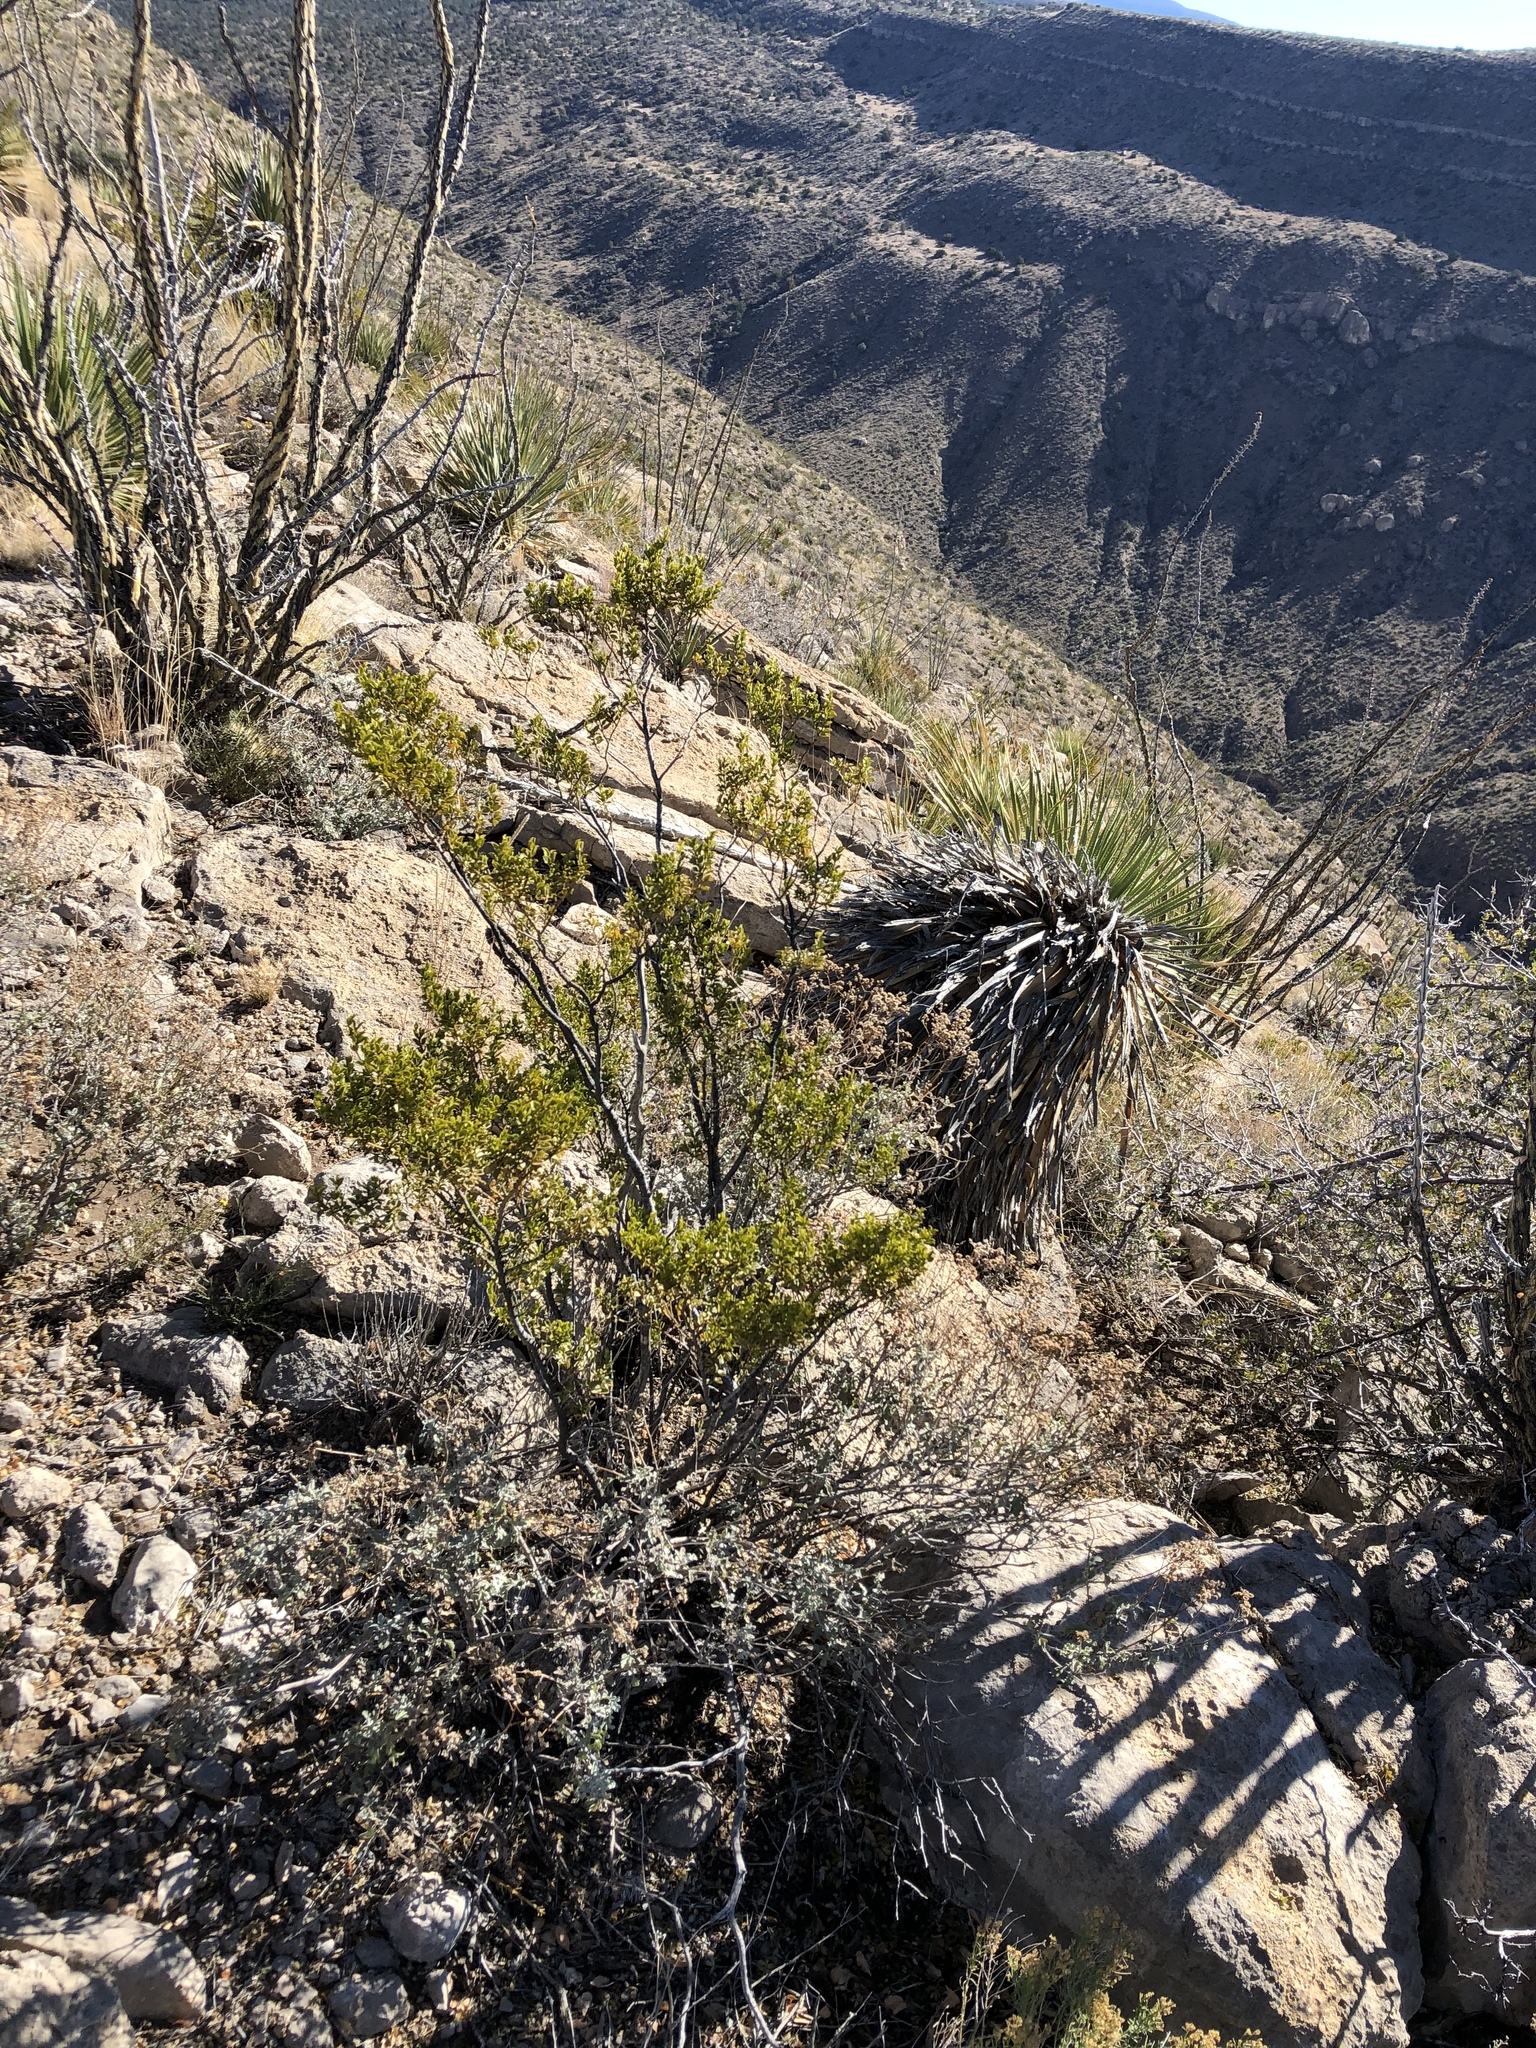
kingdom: Plantae
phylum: Tracheophyta
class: Magnoliopsida
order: Zygophyllales
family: Zygophyllaceae
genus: Larrea
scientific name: Larrea tridentata
